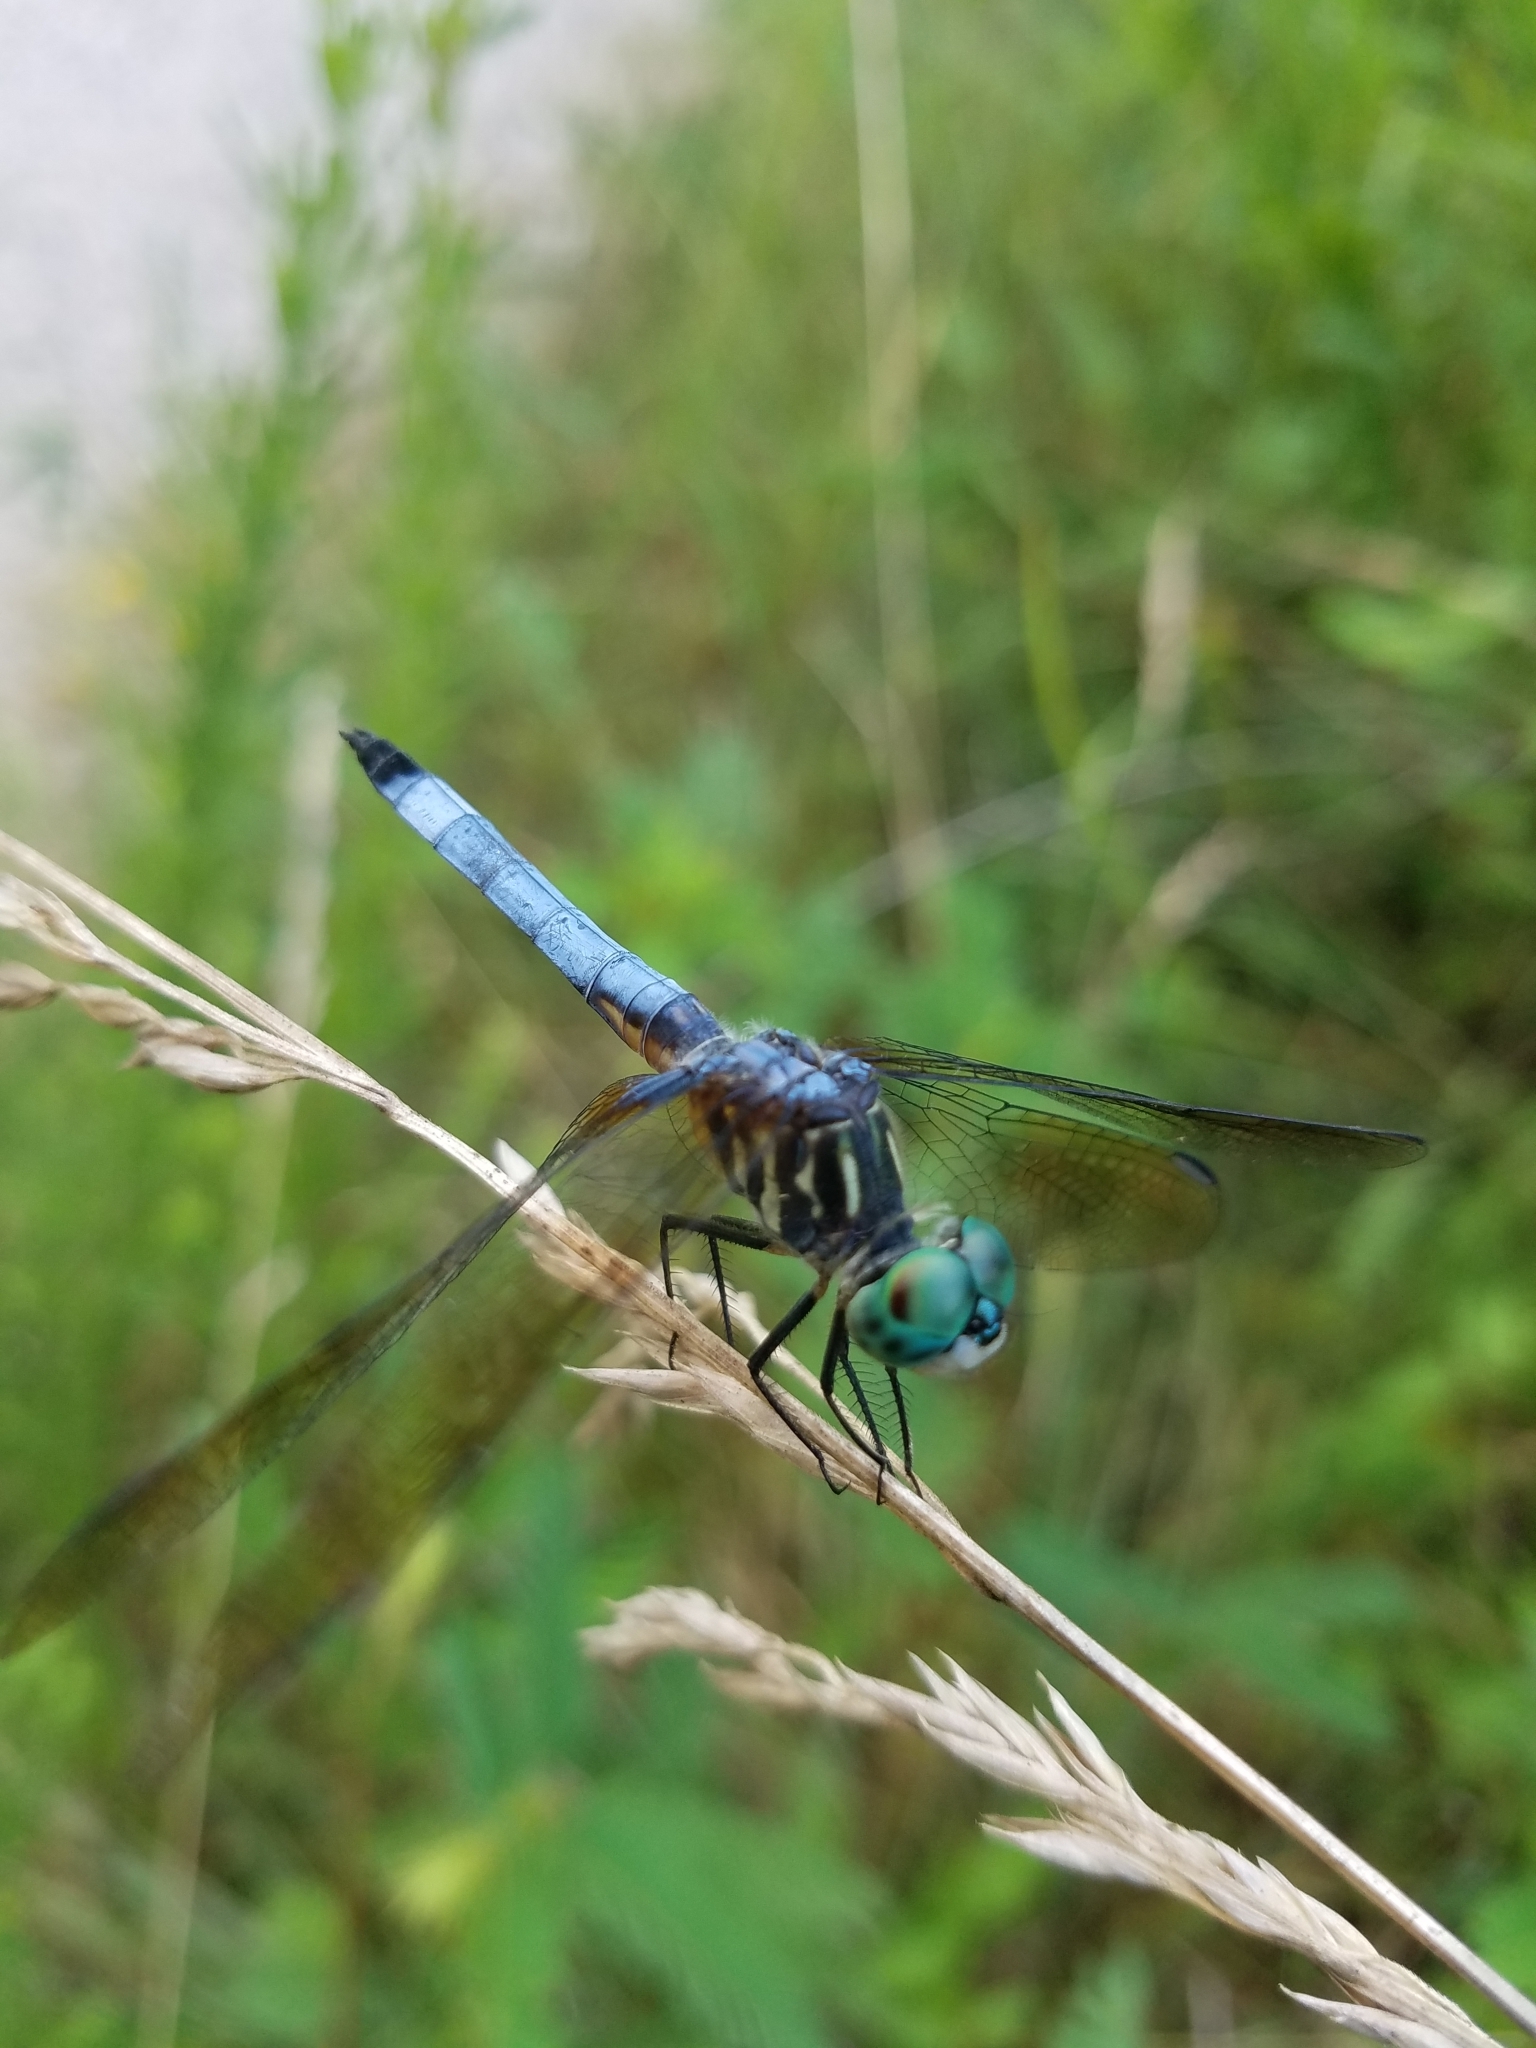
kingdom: Animalia
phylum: Arthropoda
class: Insecta
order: Odonata
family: Libellulidae
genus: Pachydiplax
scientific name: Pachydiplax longipennis
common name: Blue dasher
